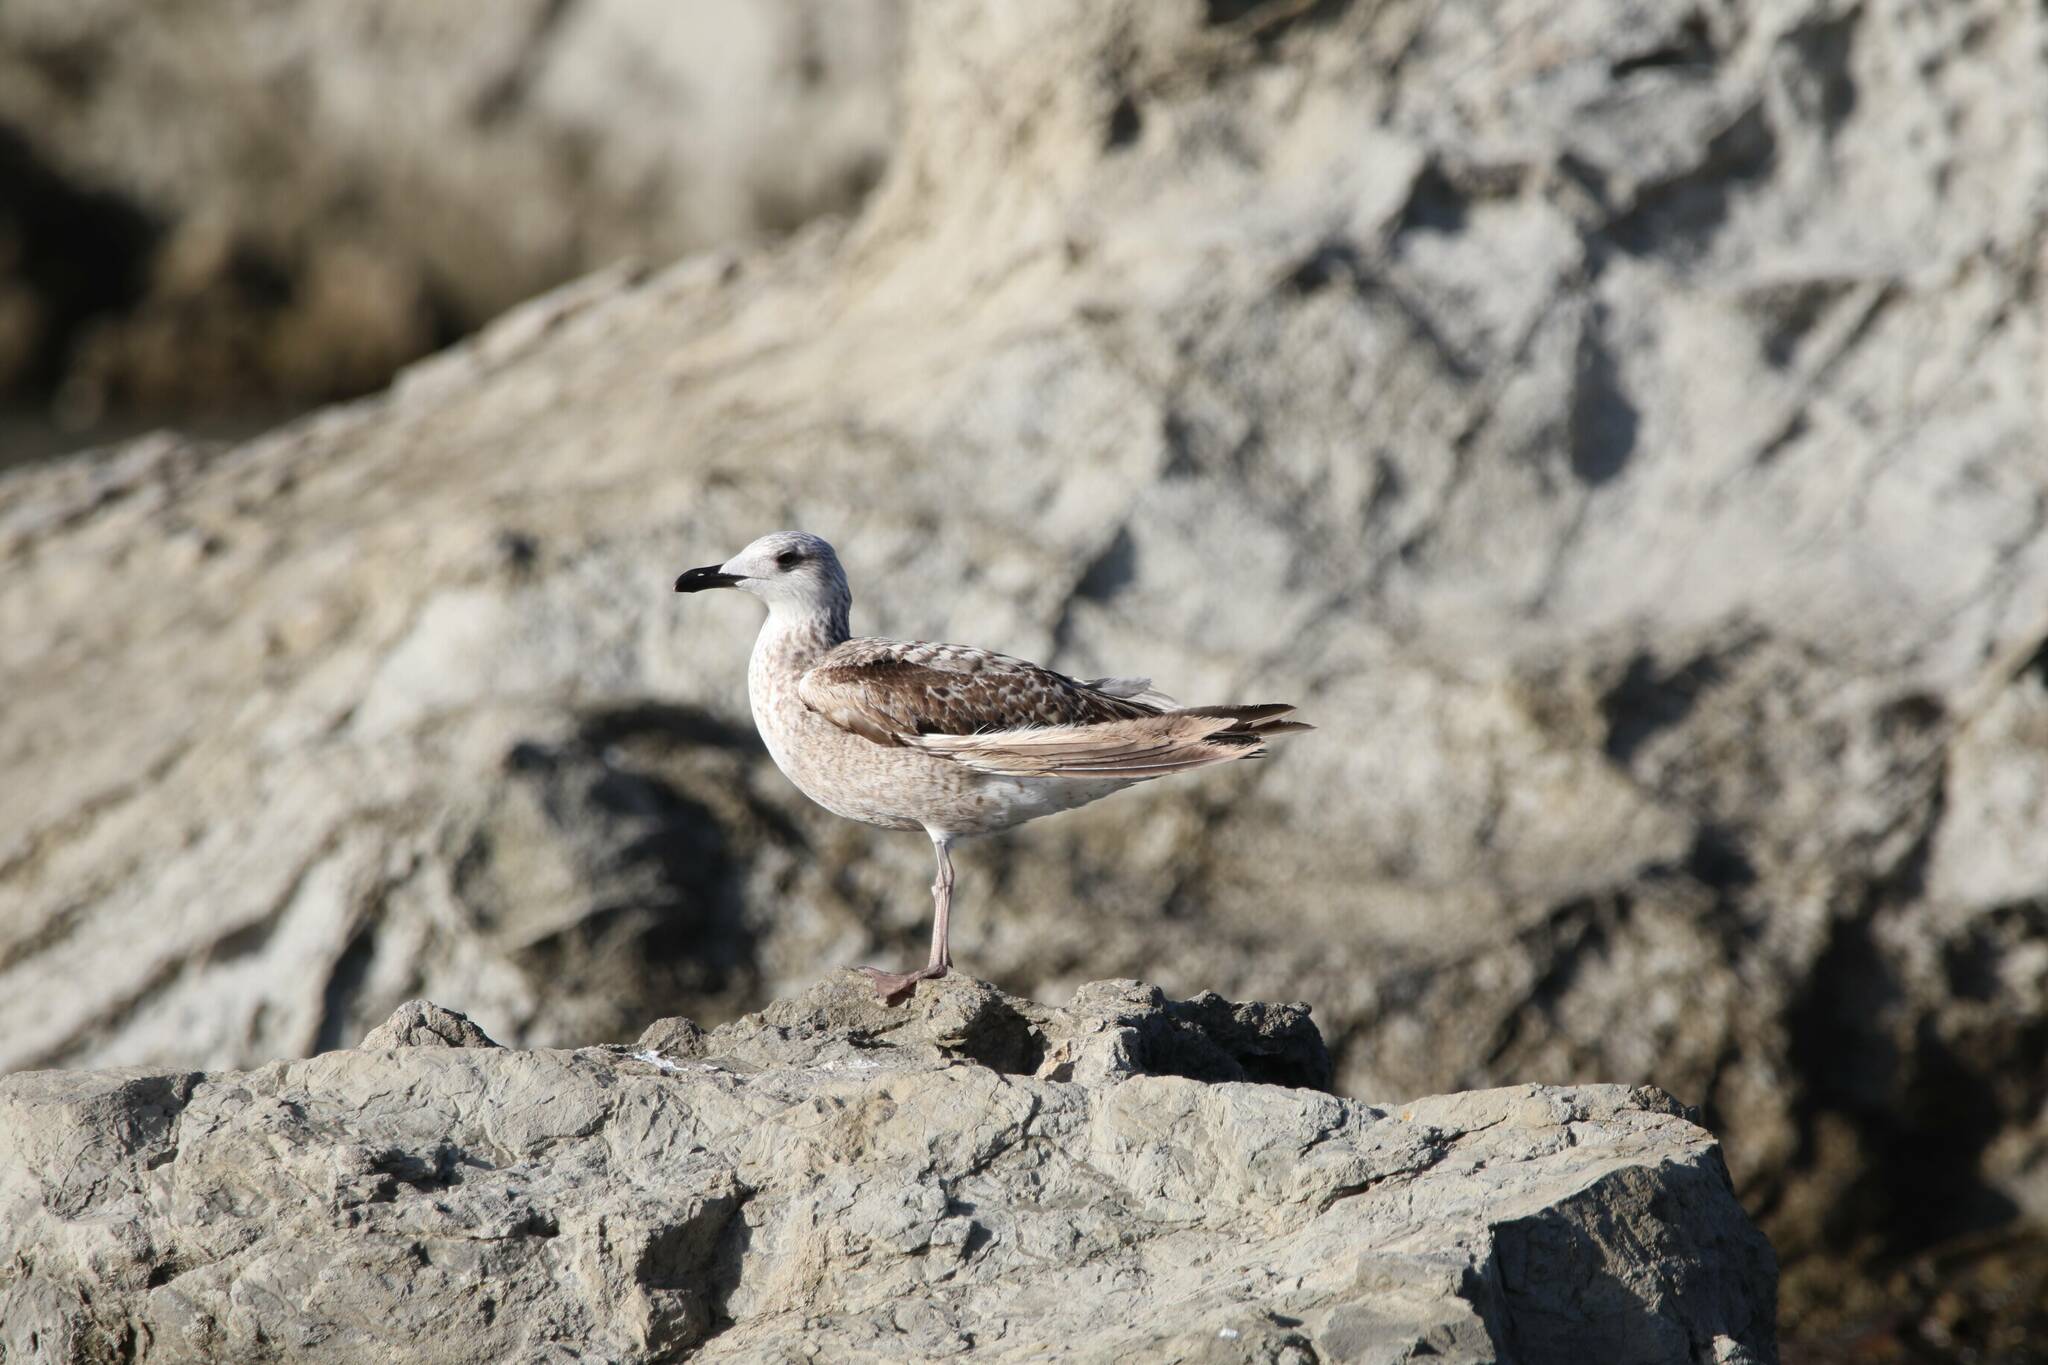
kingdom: Animalia
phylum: Chordata
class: Aves
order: Charadriiformes
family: Laridae
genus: Larus
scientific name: Larus michahellis
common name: Yellow-legged gull
